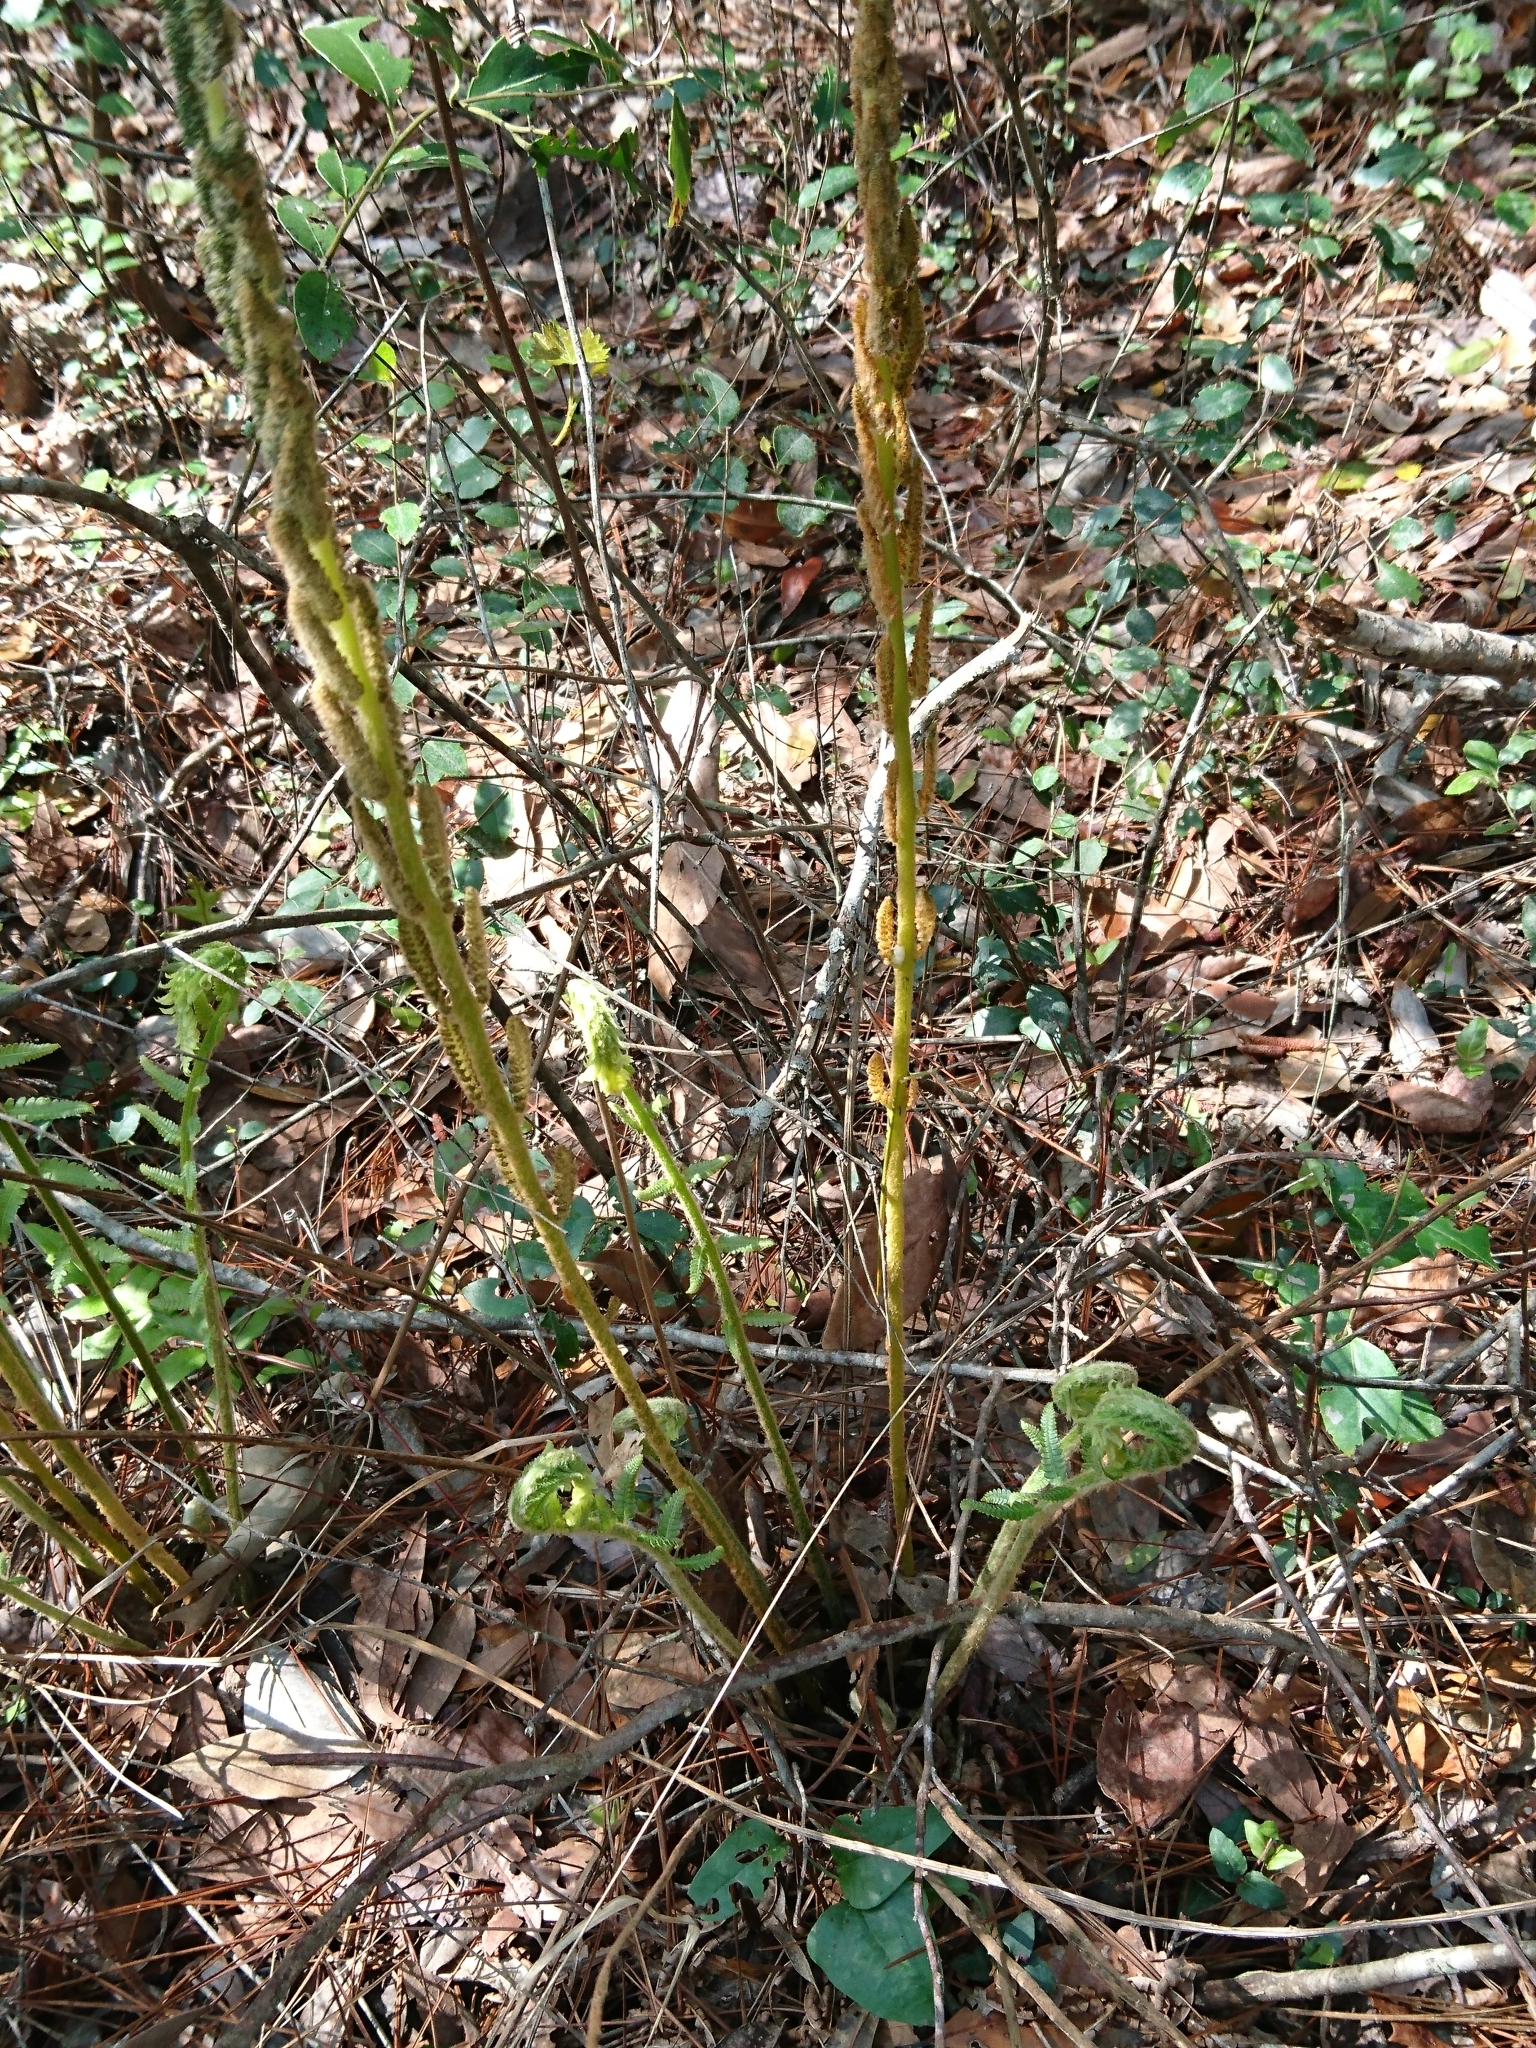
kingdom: Plantae
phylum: Tracheophyta
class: Polypodiopsida
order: Osmundales
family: Osmundaceae
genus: Osmundastrum
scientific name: Osmundastrum cinnamomeum
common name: Cinnamon fern
